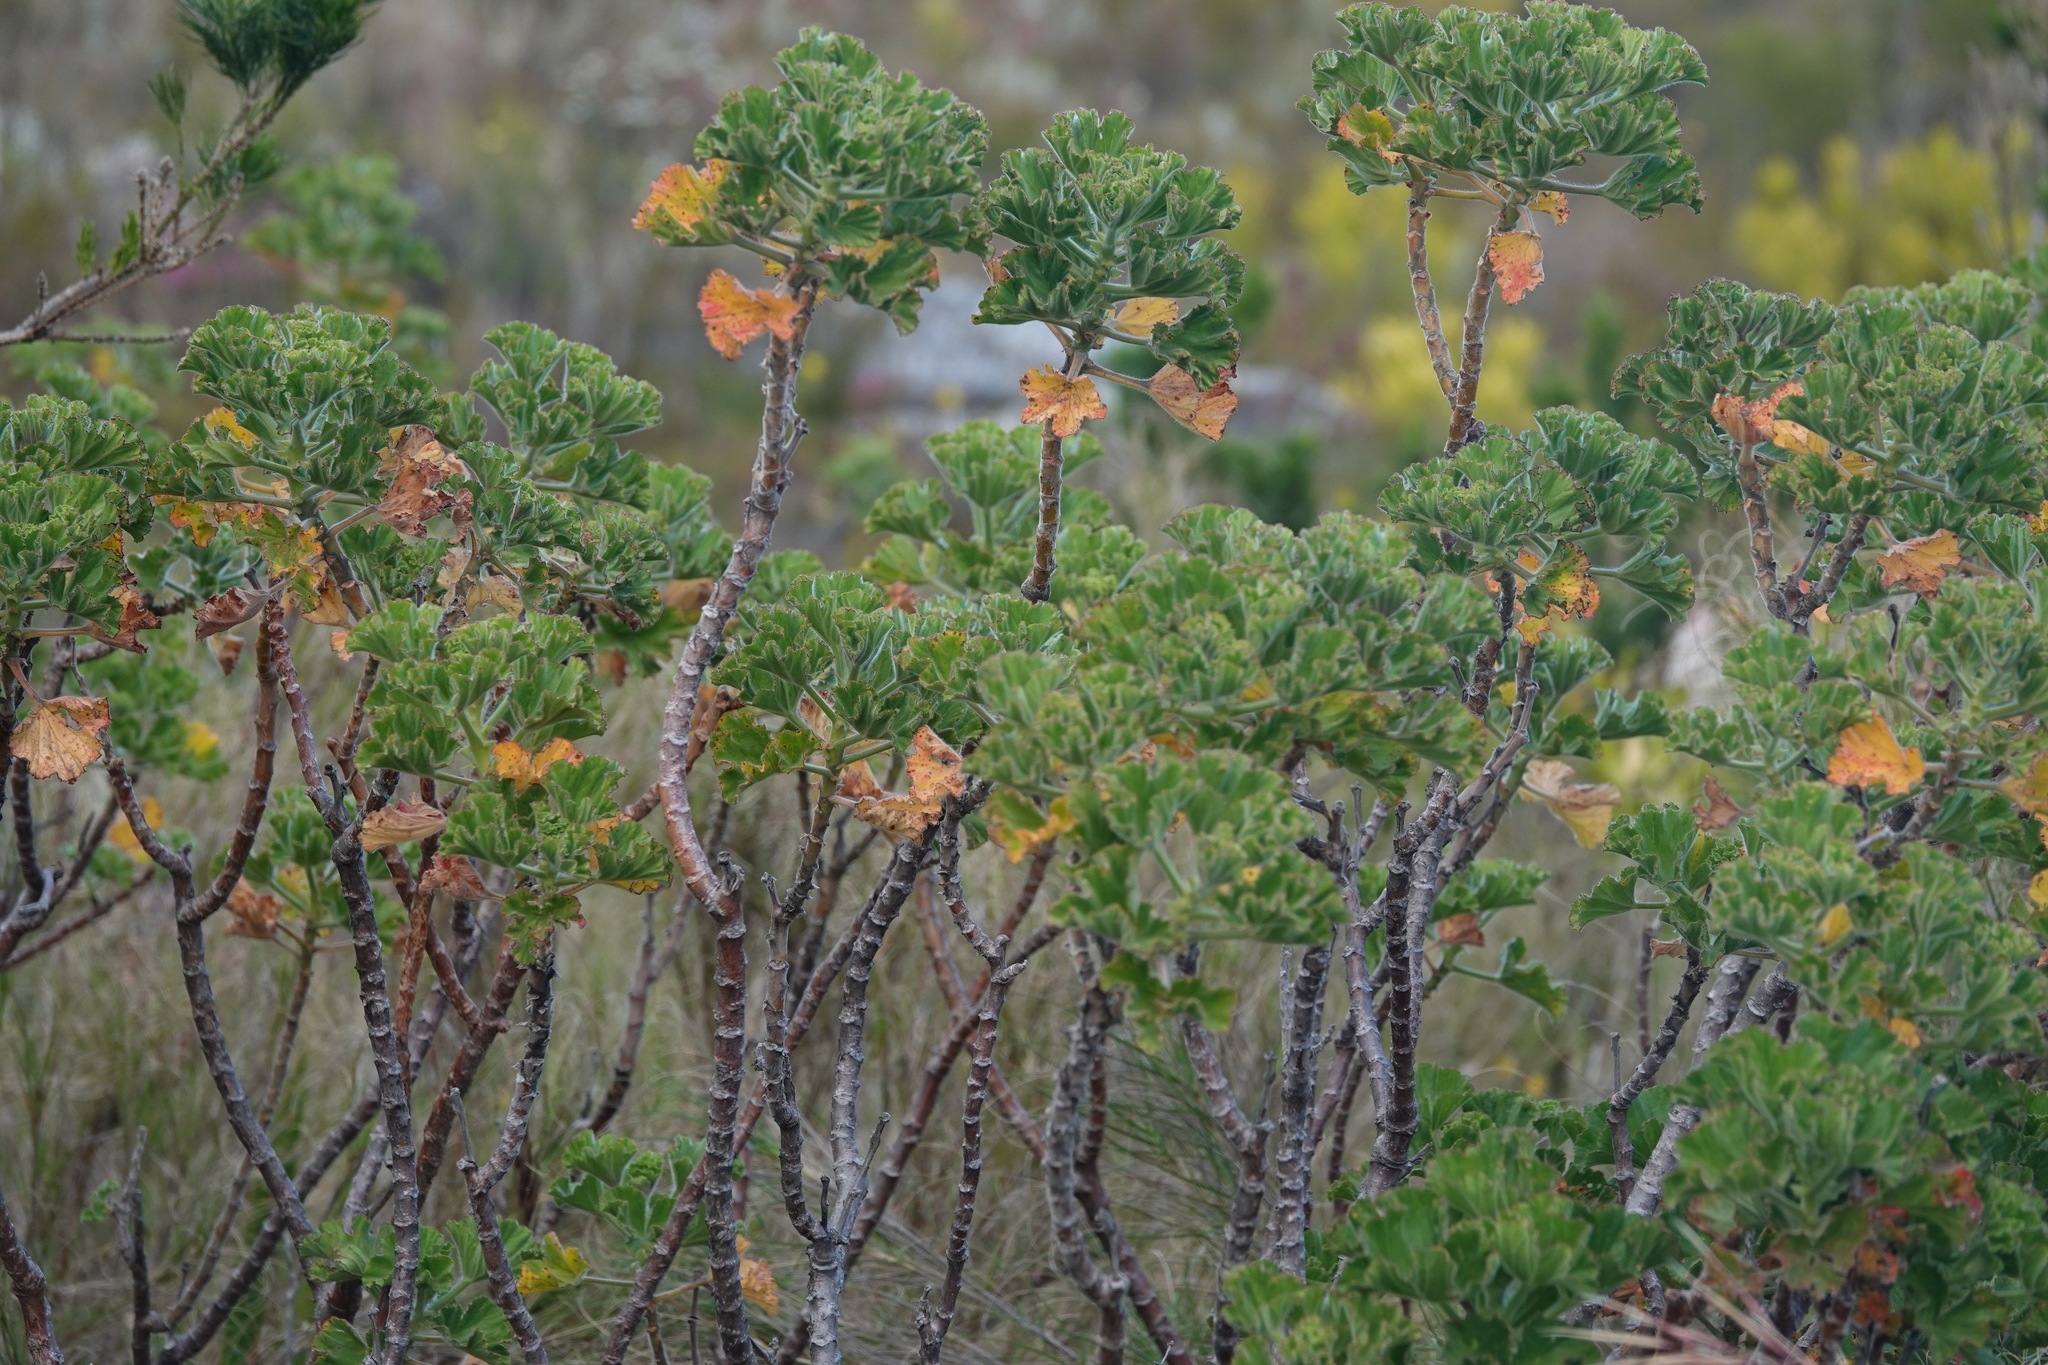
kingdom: Plantae
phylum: Tracheophyta
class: Magnoliopsida
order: Geraniales
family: Geraniaceae
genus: Pelargonium
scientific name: Pelargonium cucullatum
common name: Tree pelargonium
